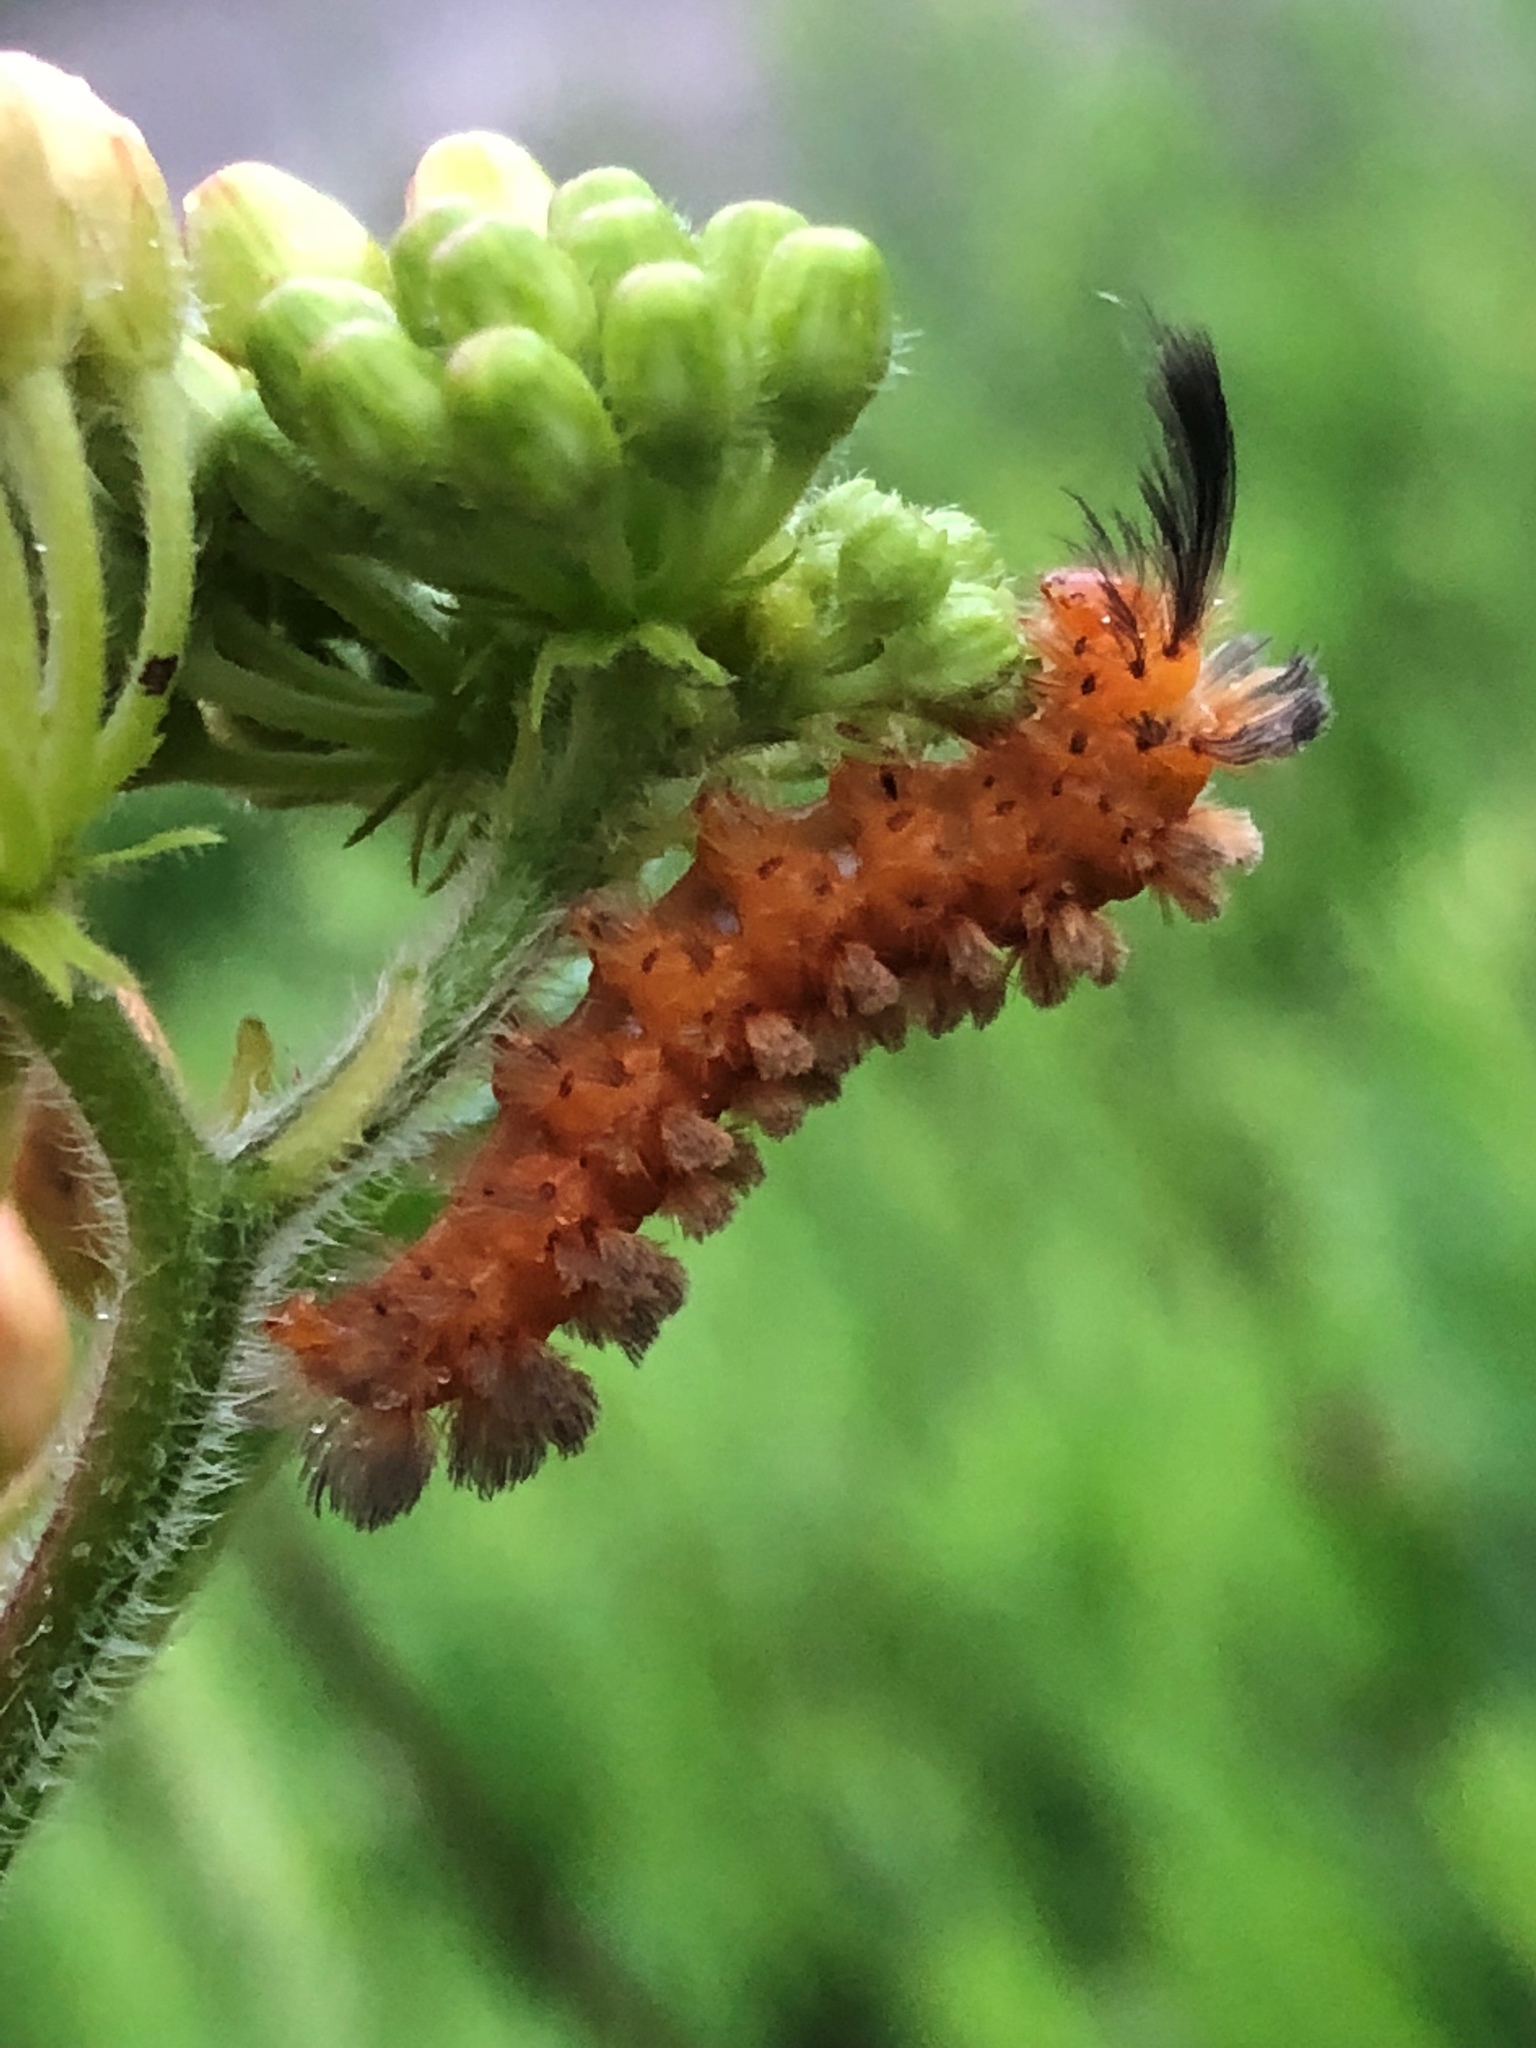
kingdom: Animalia
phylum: Arthropoda
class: Insecta
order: Lepidoptera
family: Erebidae
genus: Cycnia
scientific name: Cycnia collaris
